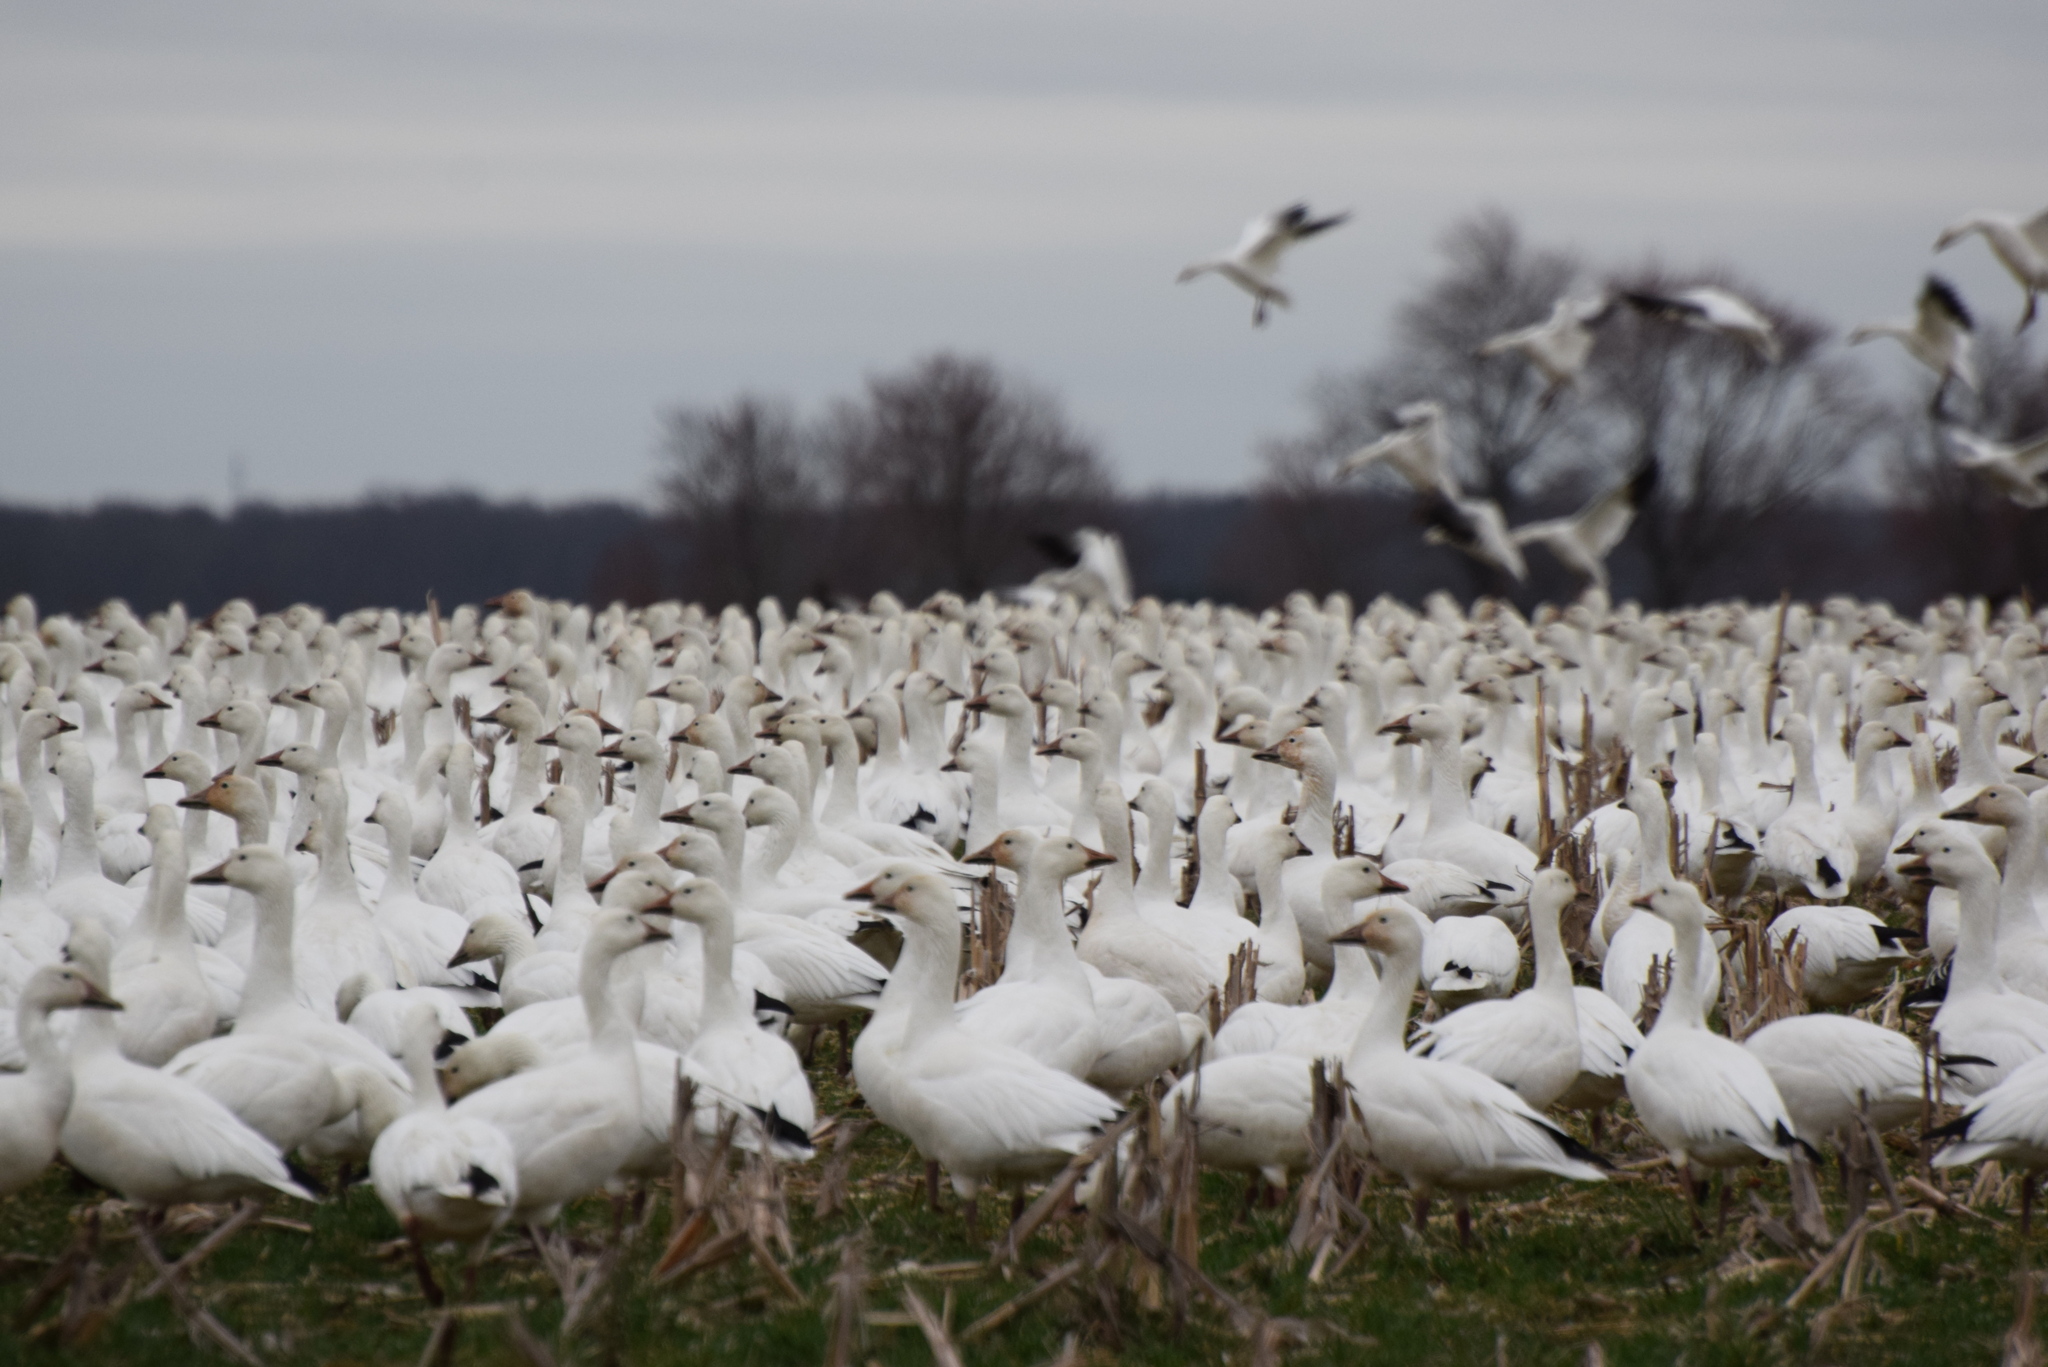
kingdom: Animalia
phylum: Chordata
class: Aves
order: Anseriformes
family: Anatidae
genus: Anser
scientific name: Anser caerulescens
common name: Snow goose
